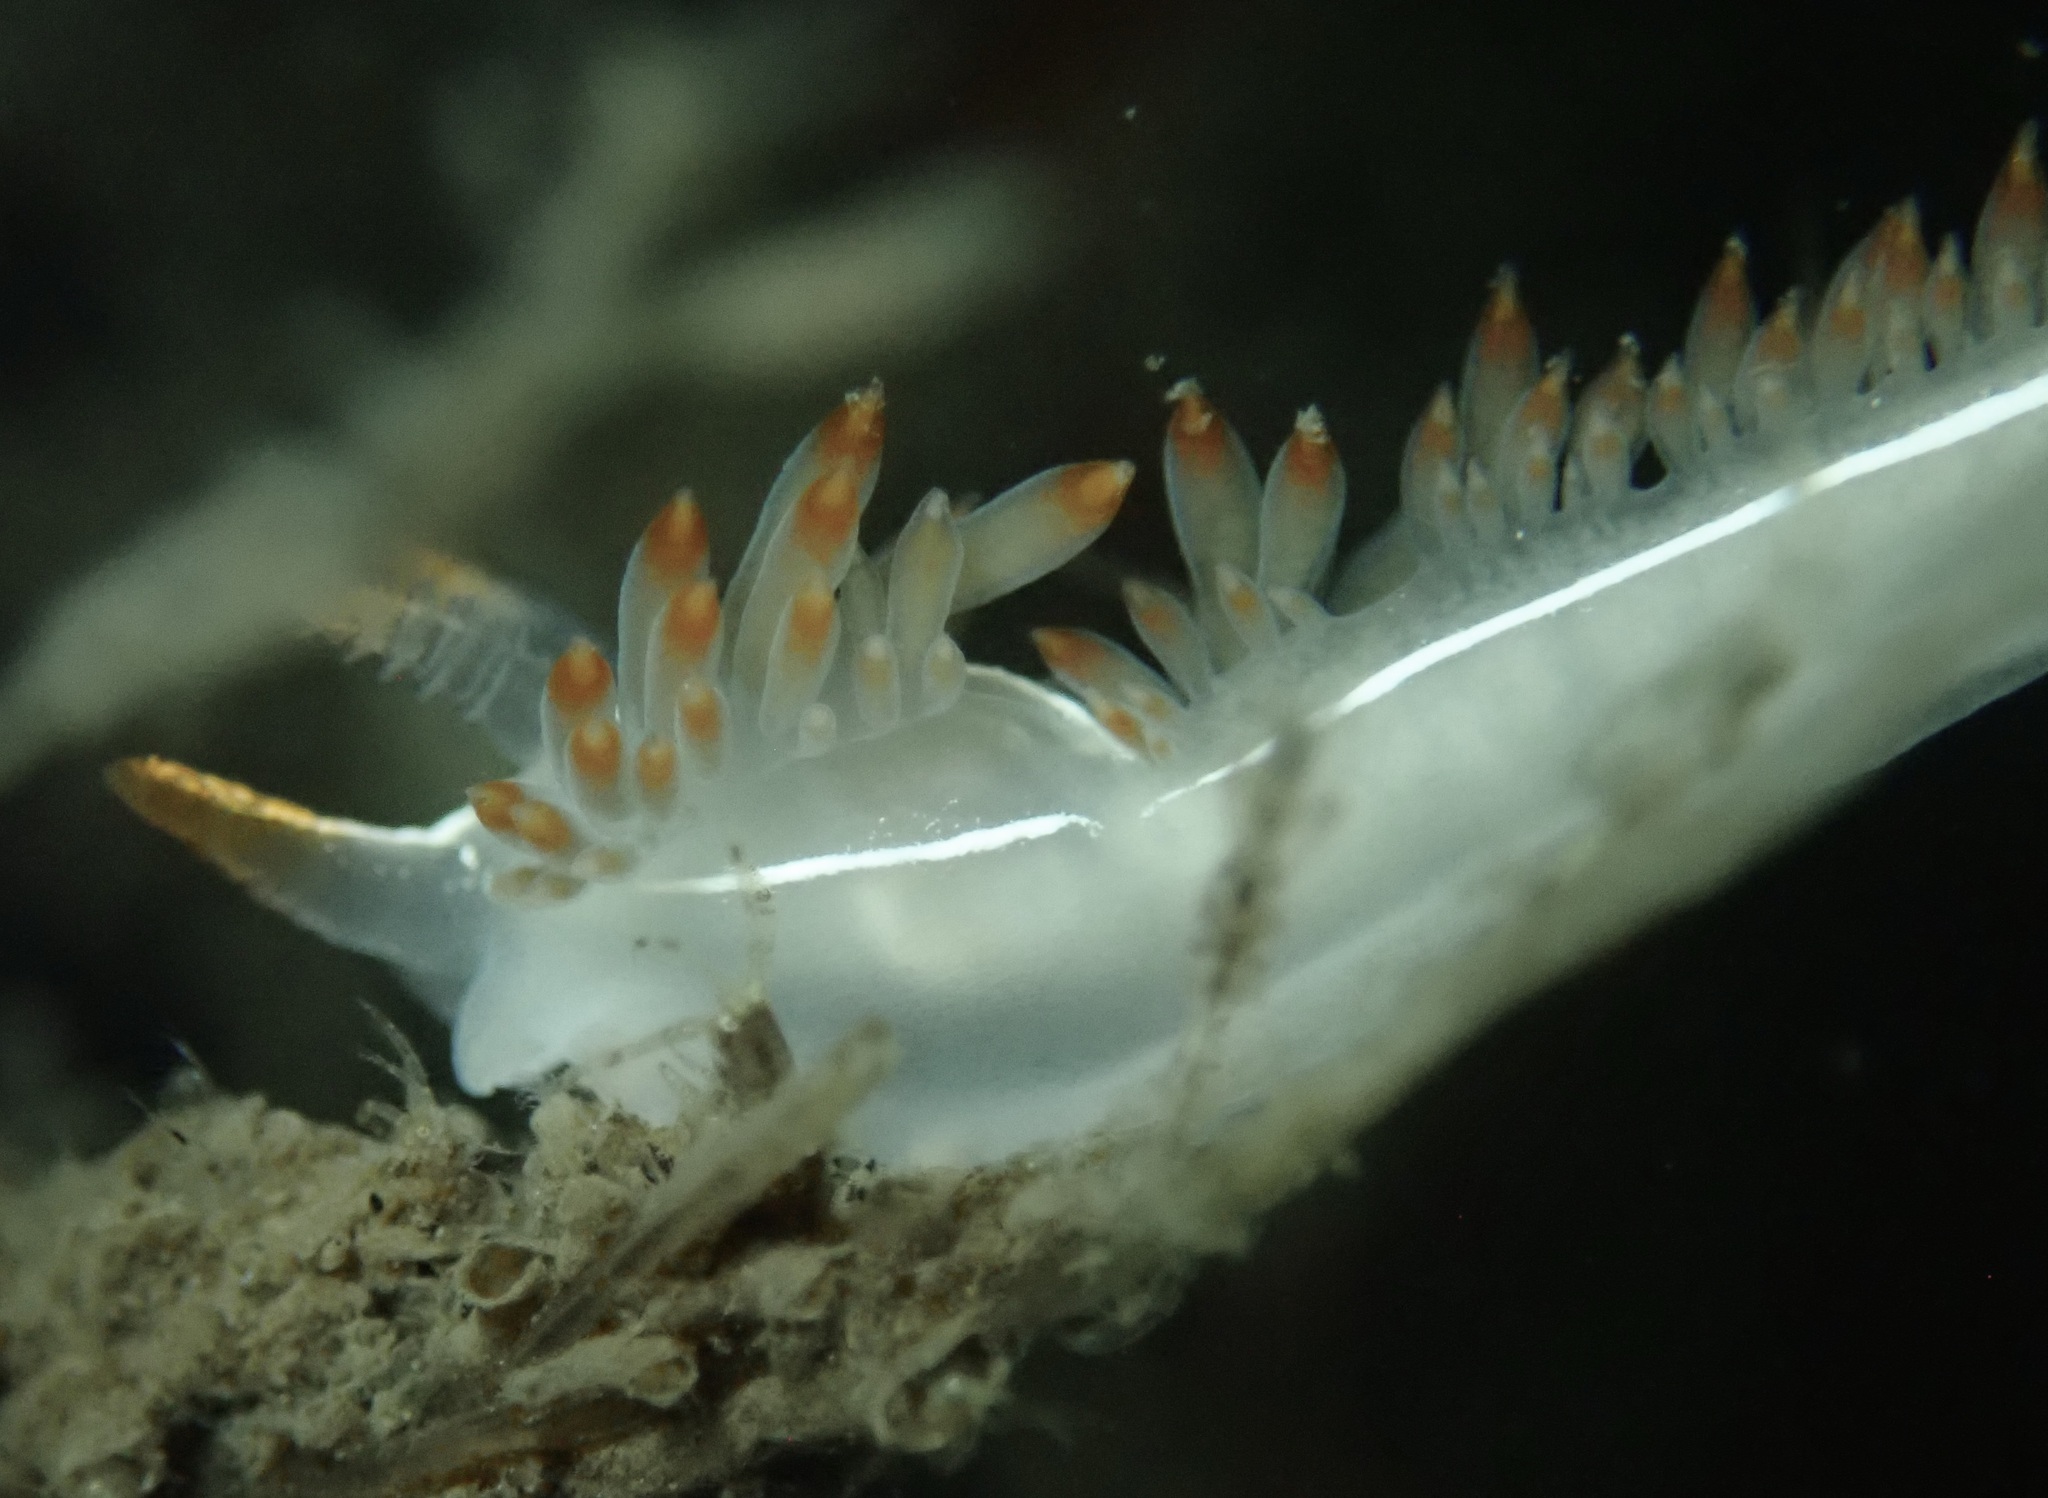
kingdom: Animalia
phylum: Mollusca
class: Gastropoda
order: Nudibranchia
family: Coryphellidae
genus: Coryphella
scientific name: Coryphella trilineata
